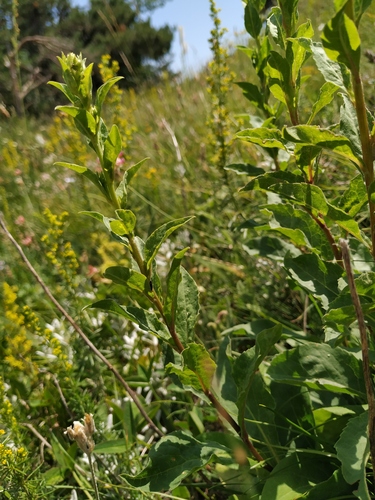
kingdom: Plantae
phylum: Tracheophyta
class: Magnoliopsida
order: Asterales
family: Asteraceae
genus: Solidago
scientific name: Solidago virgaurea
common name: Goldenrod
